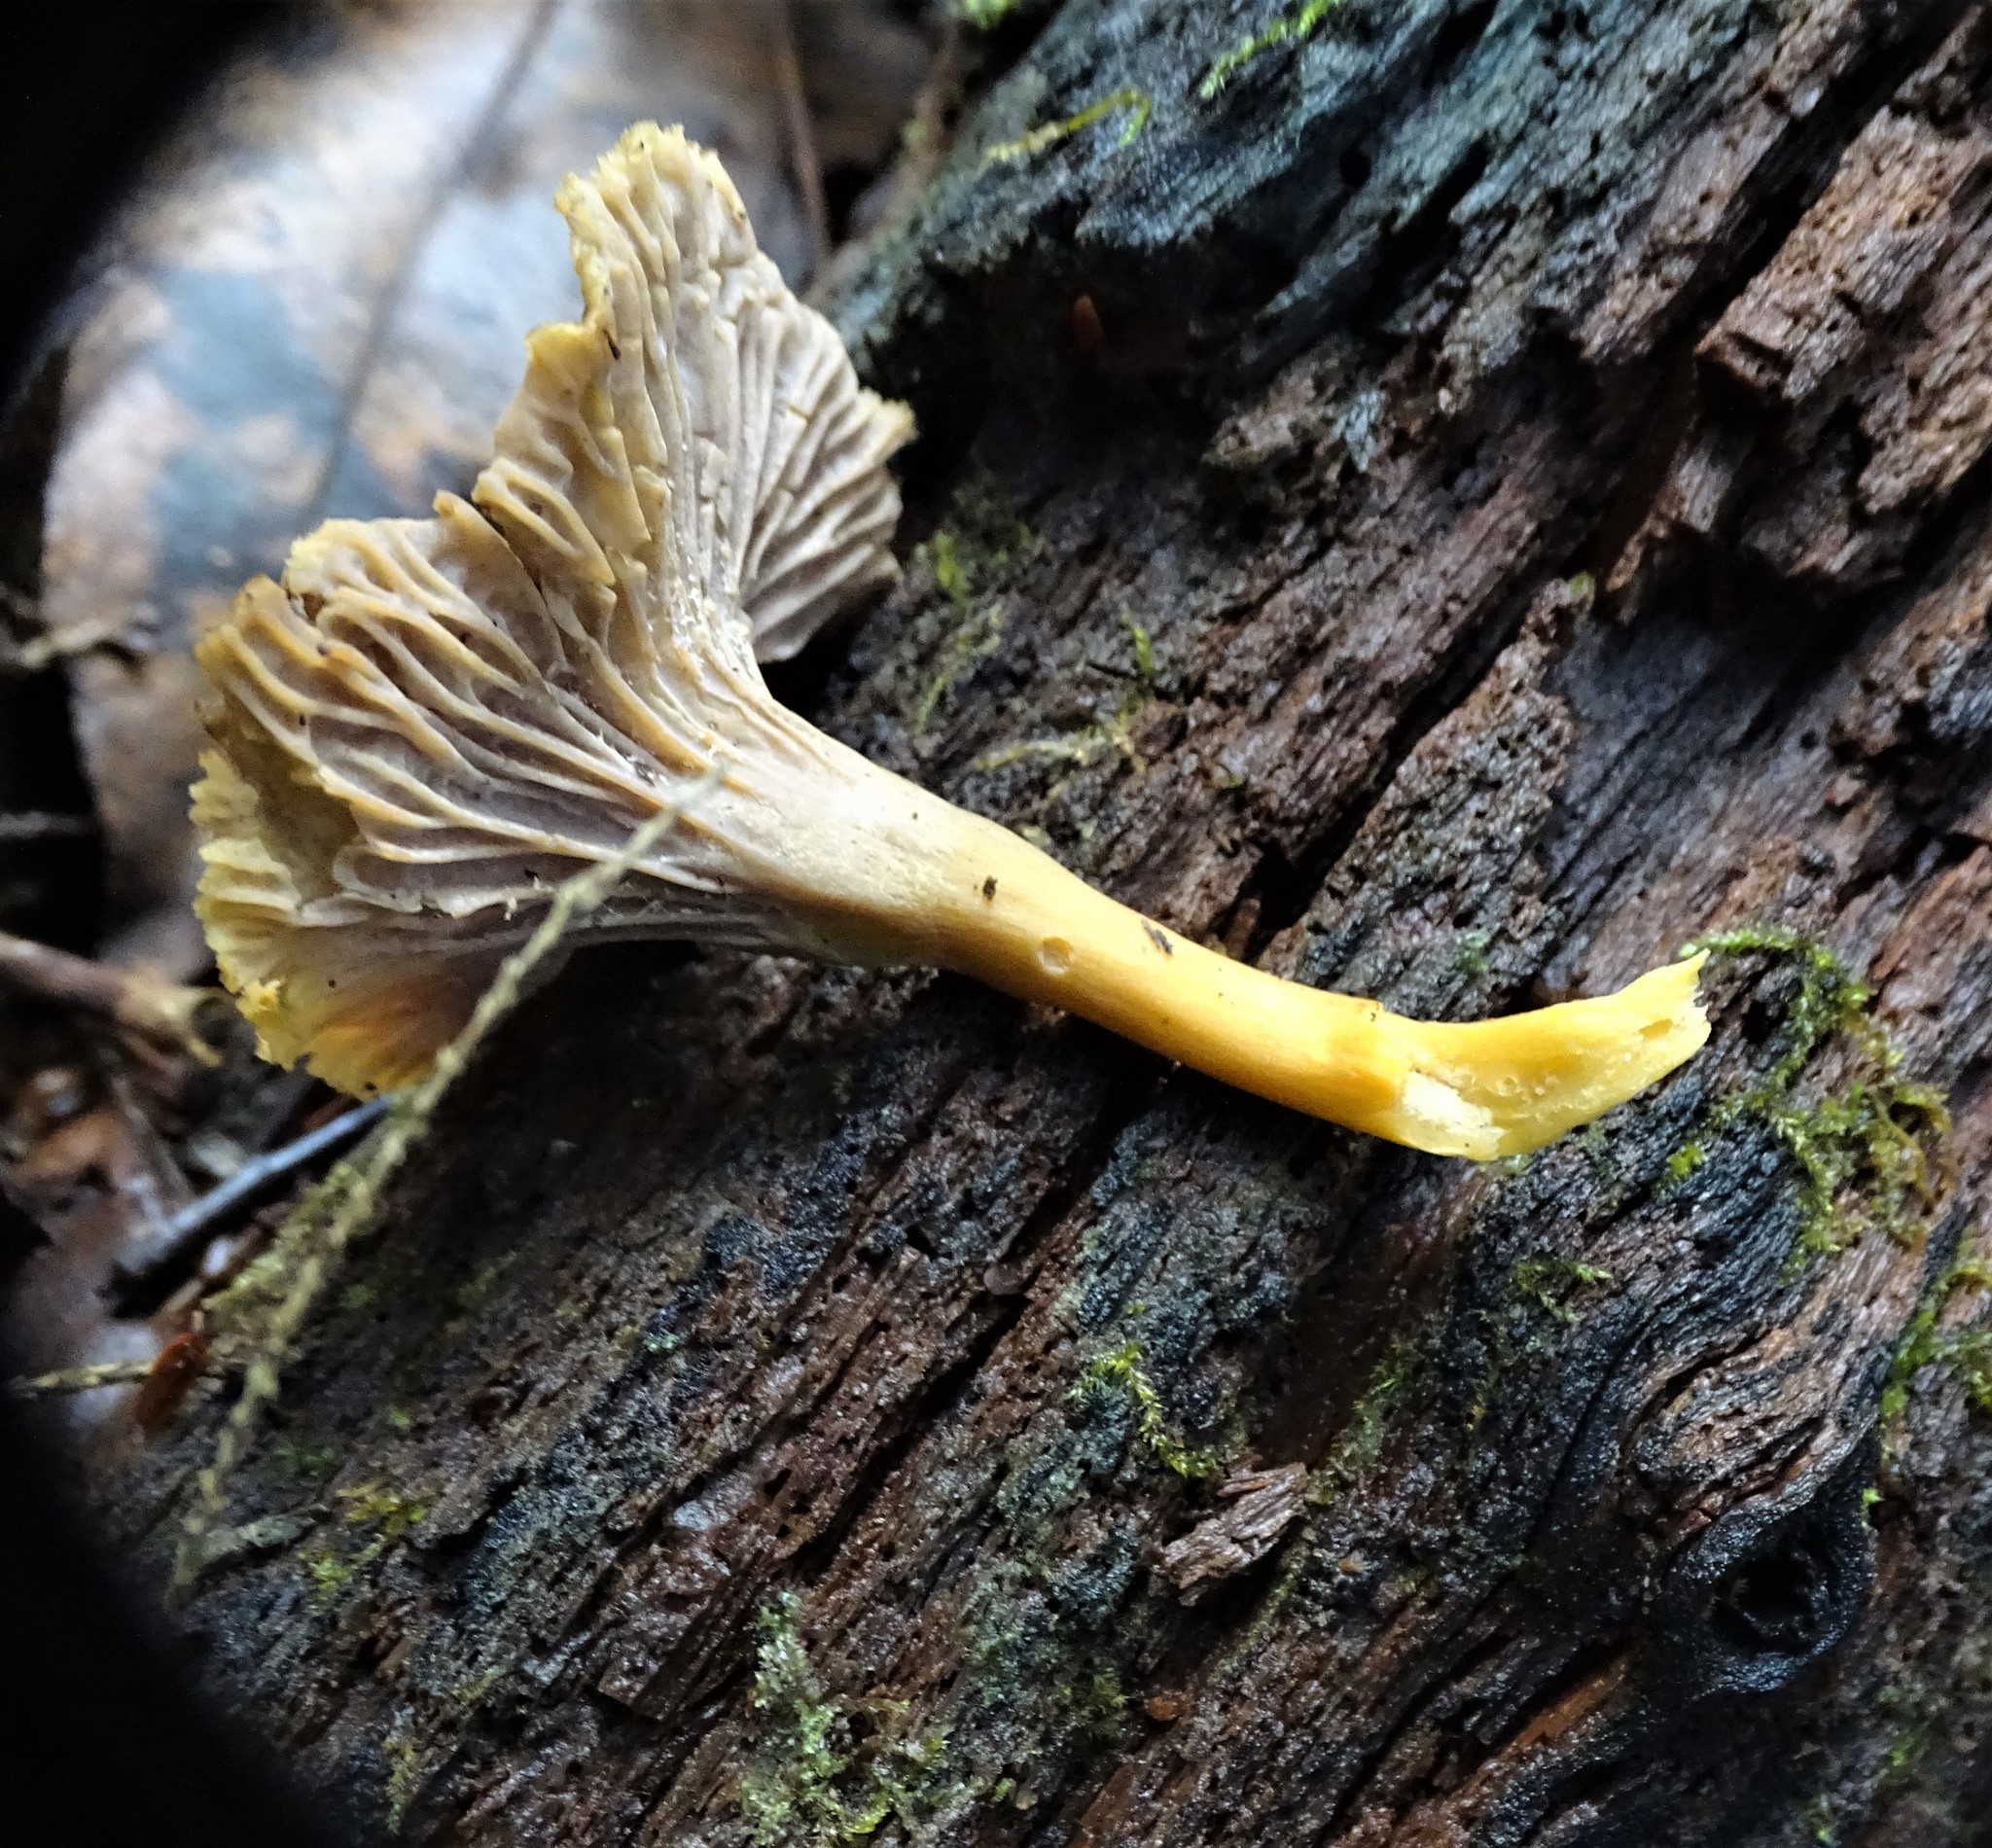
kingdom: Fungi
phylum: Basidiomycota
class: Agaricomycetes
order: Cantharellales
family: Hydnaceae
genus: Craterellus
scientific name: Craterellus tubaeformis
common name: Yellowfoot
